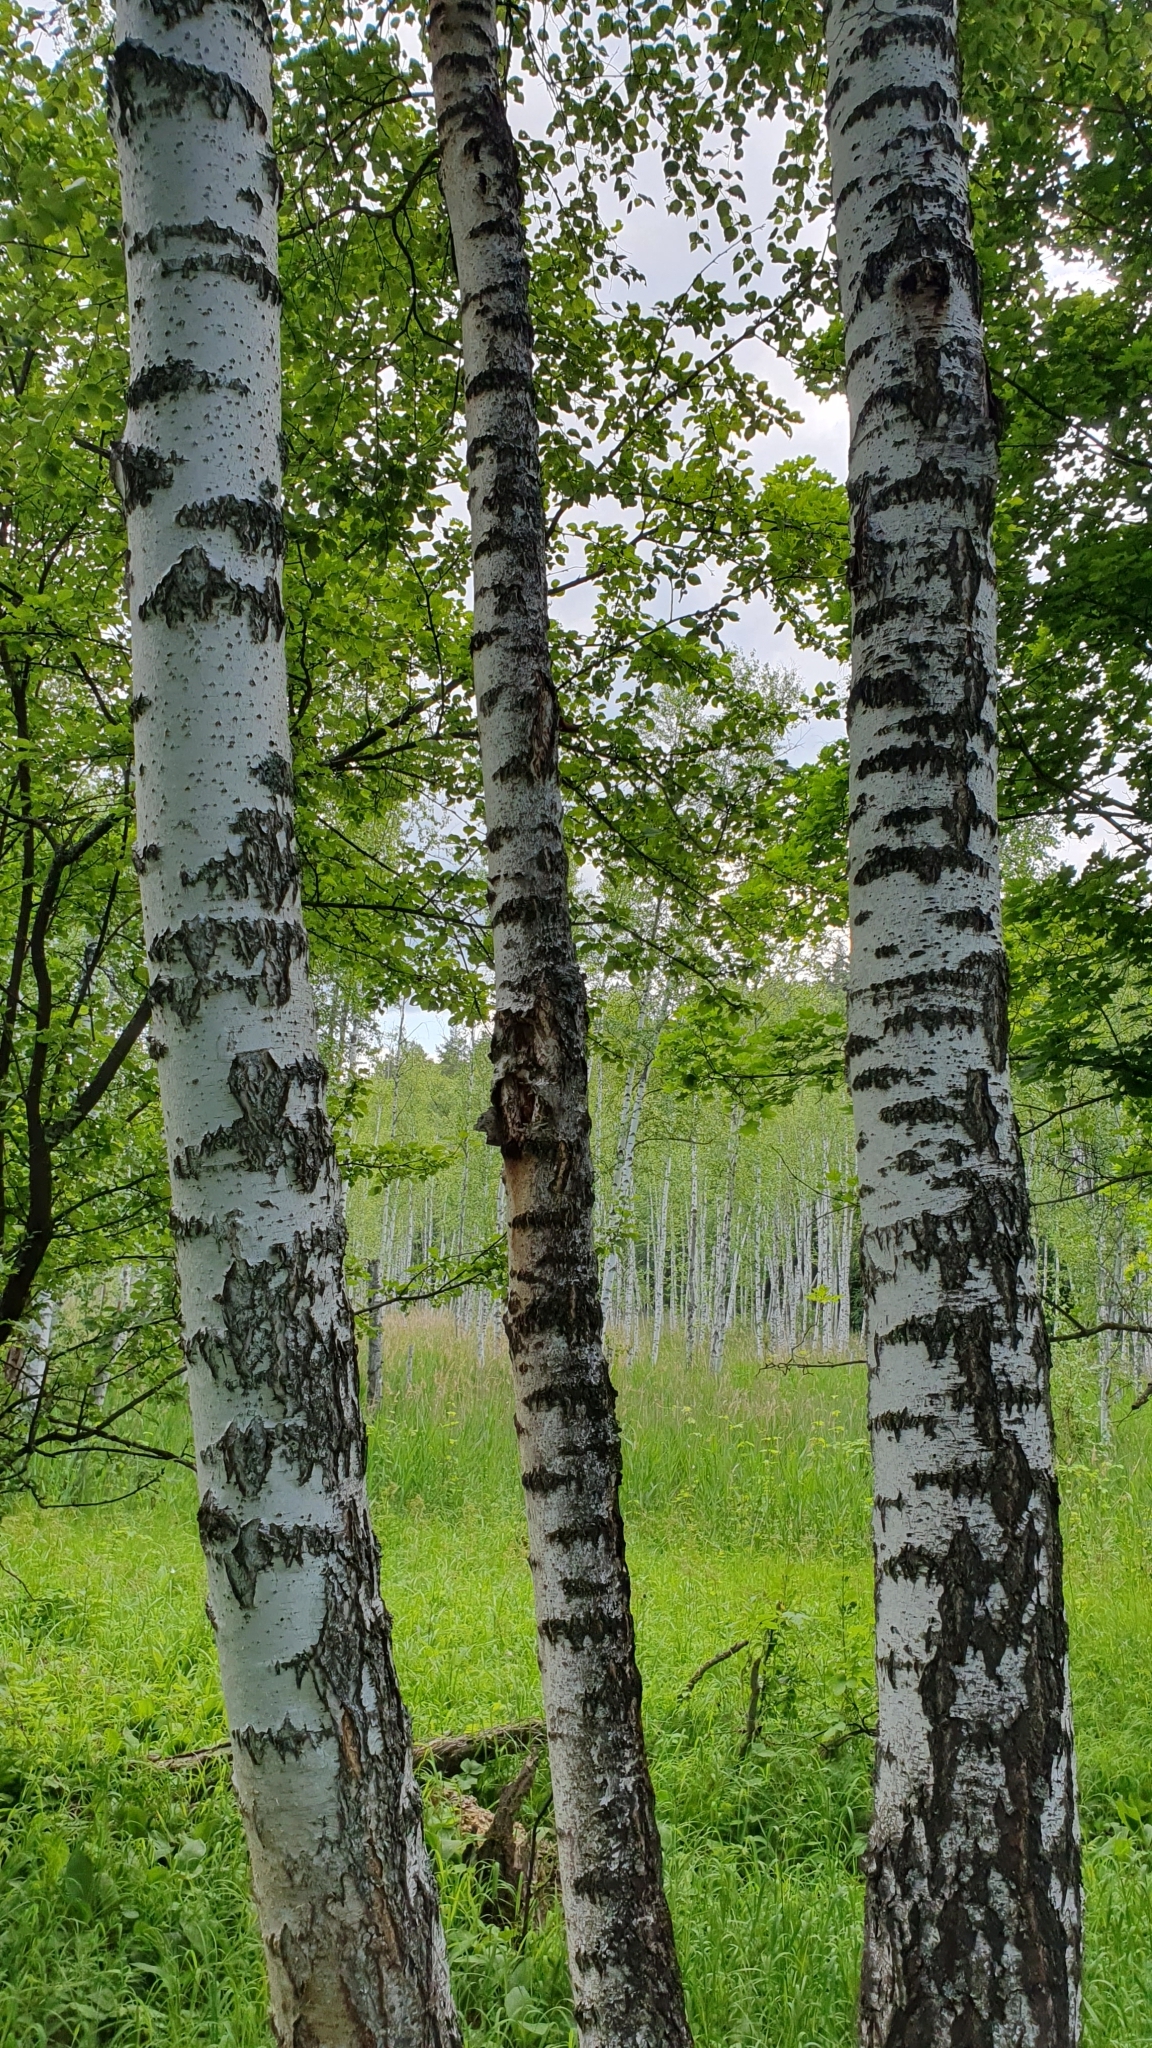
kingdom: Plantae
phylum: Tracheophyta
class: Magnoliopsida
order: Fagales
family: Betulaceae
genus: Betula
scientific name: Betula pendula
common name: Silver birch
